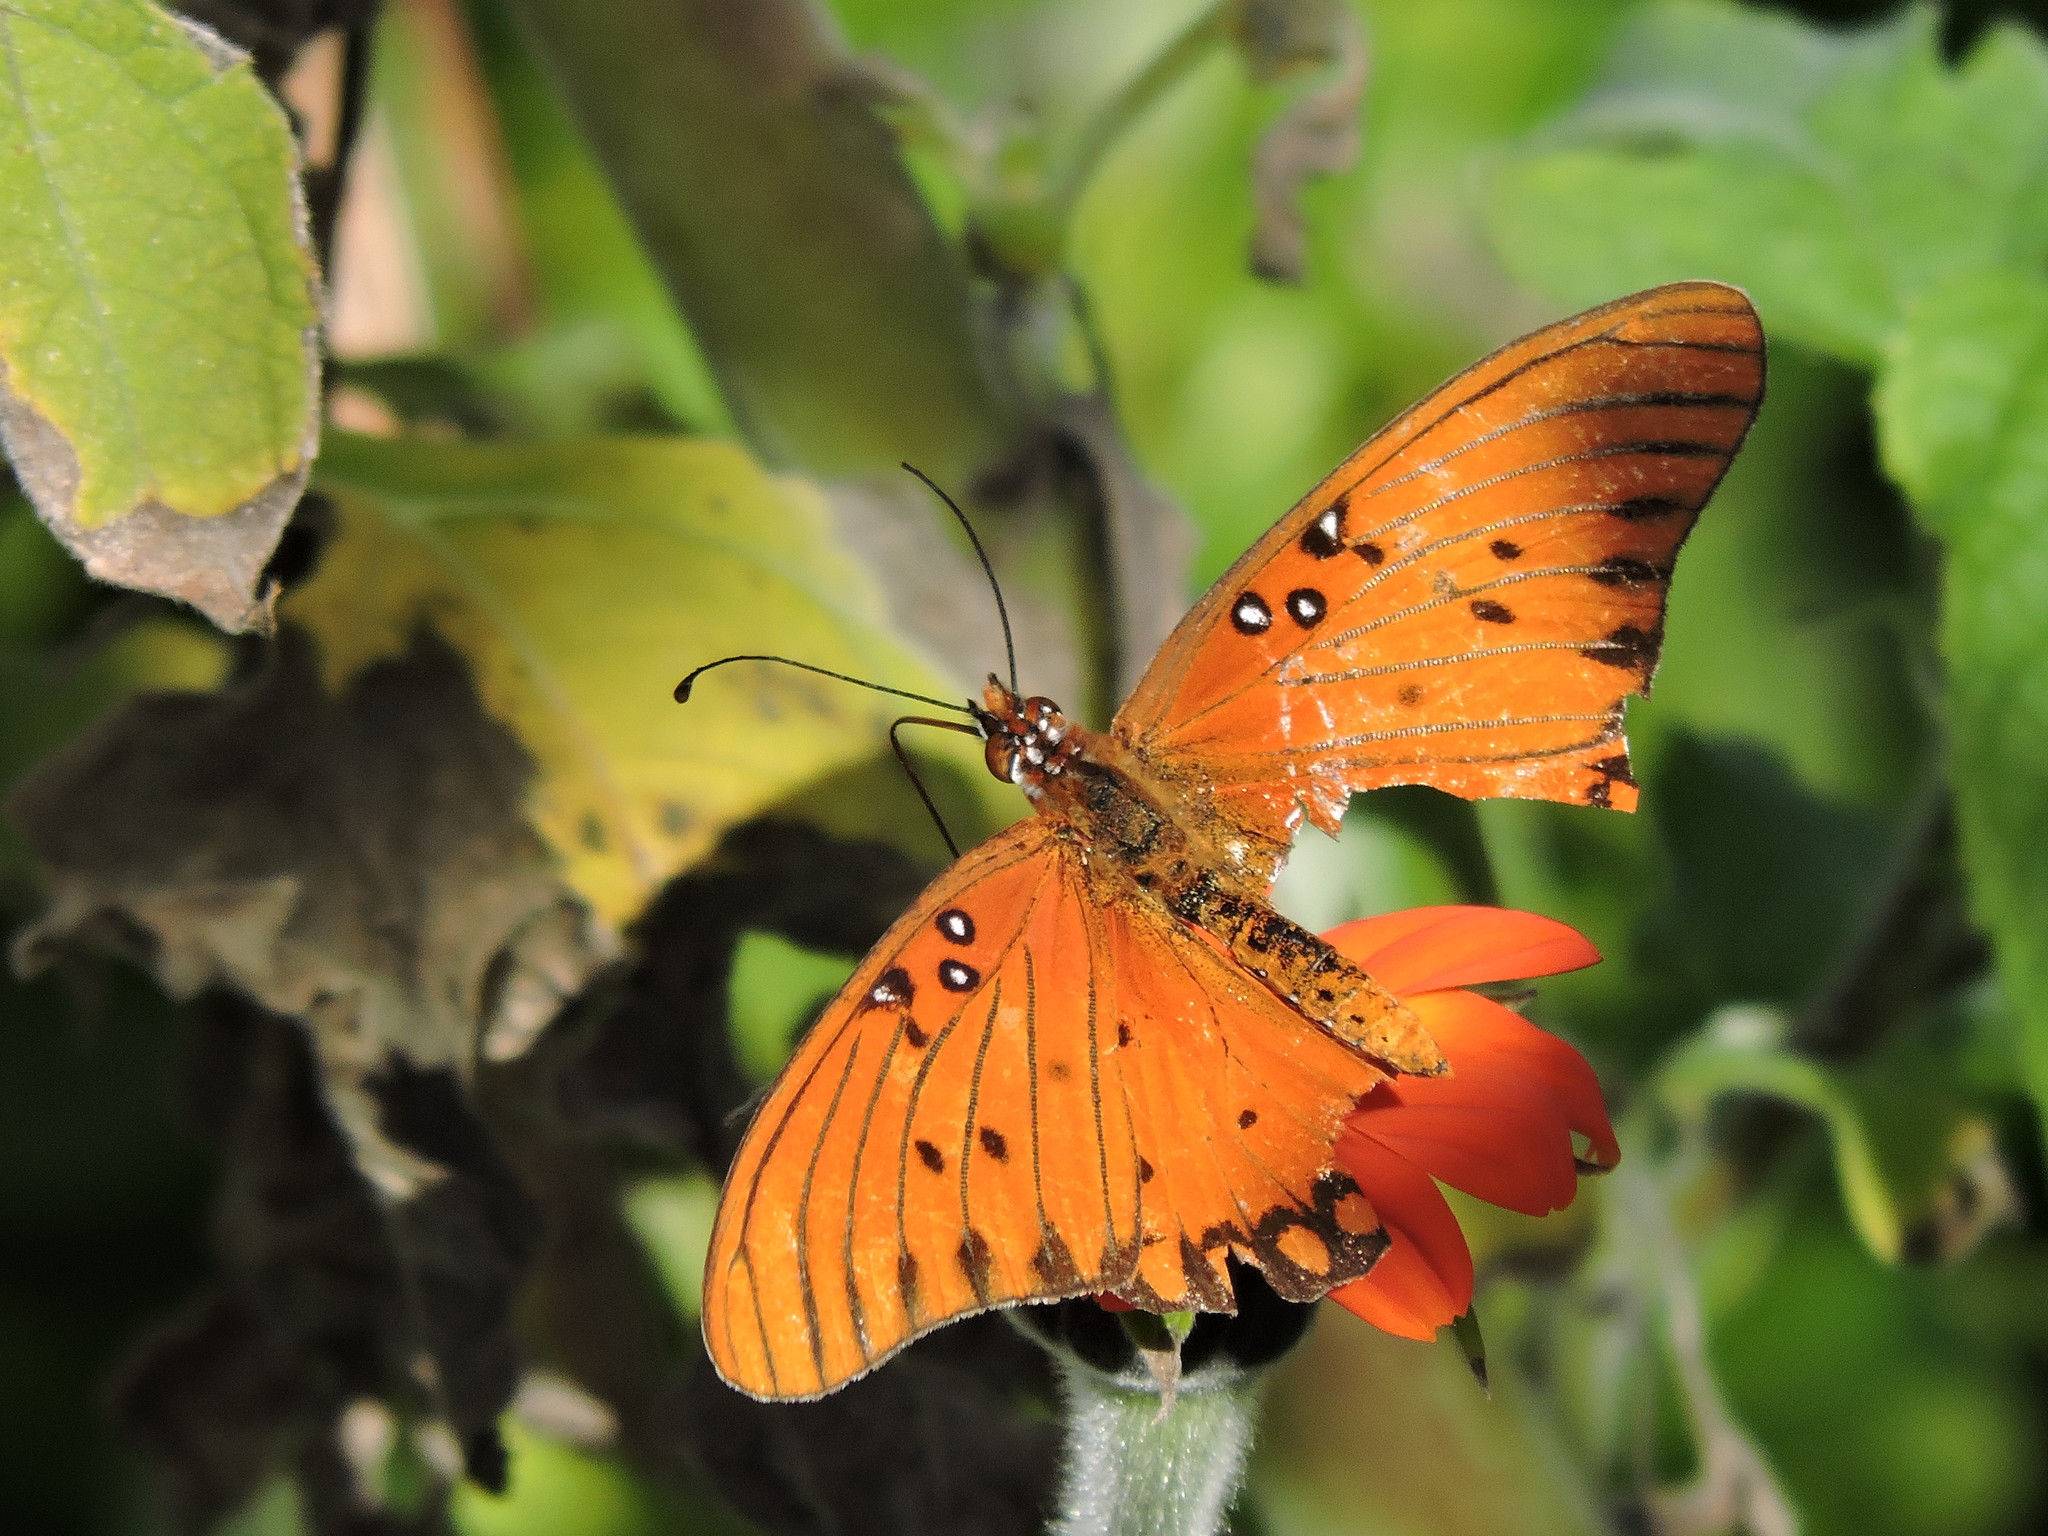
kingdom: Animalia
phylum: Arthropoda
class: Insecta
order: Lepidoptera
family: Nymphalidae
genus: Dione
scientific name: Dione vanillae
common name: Gulf fritillary
